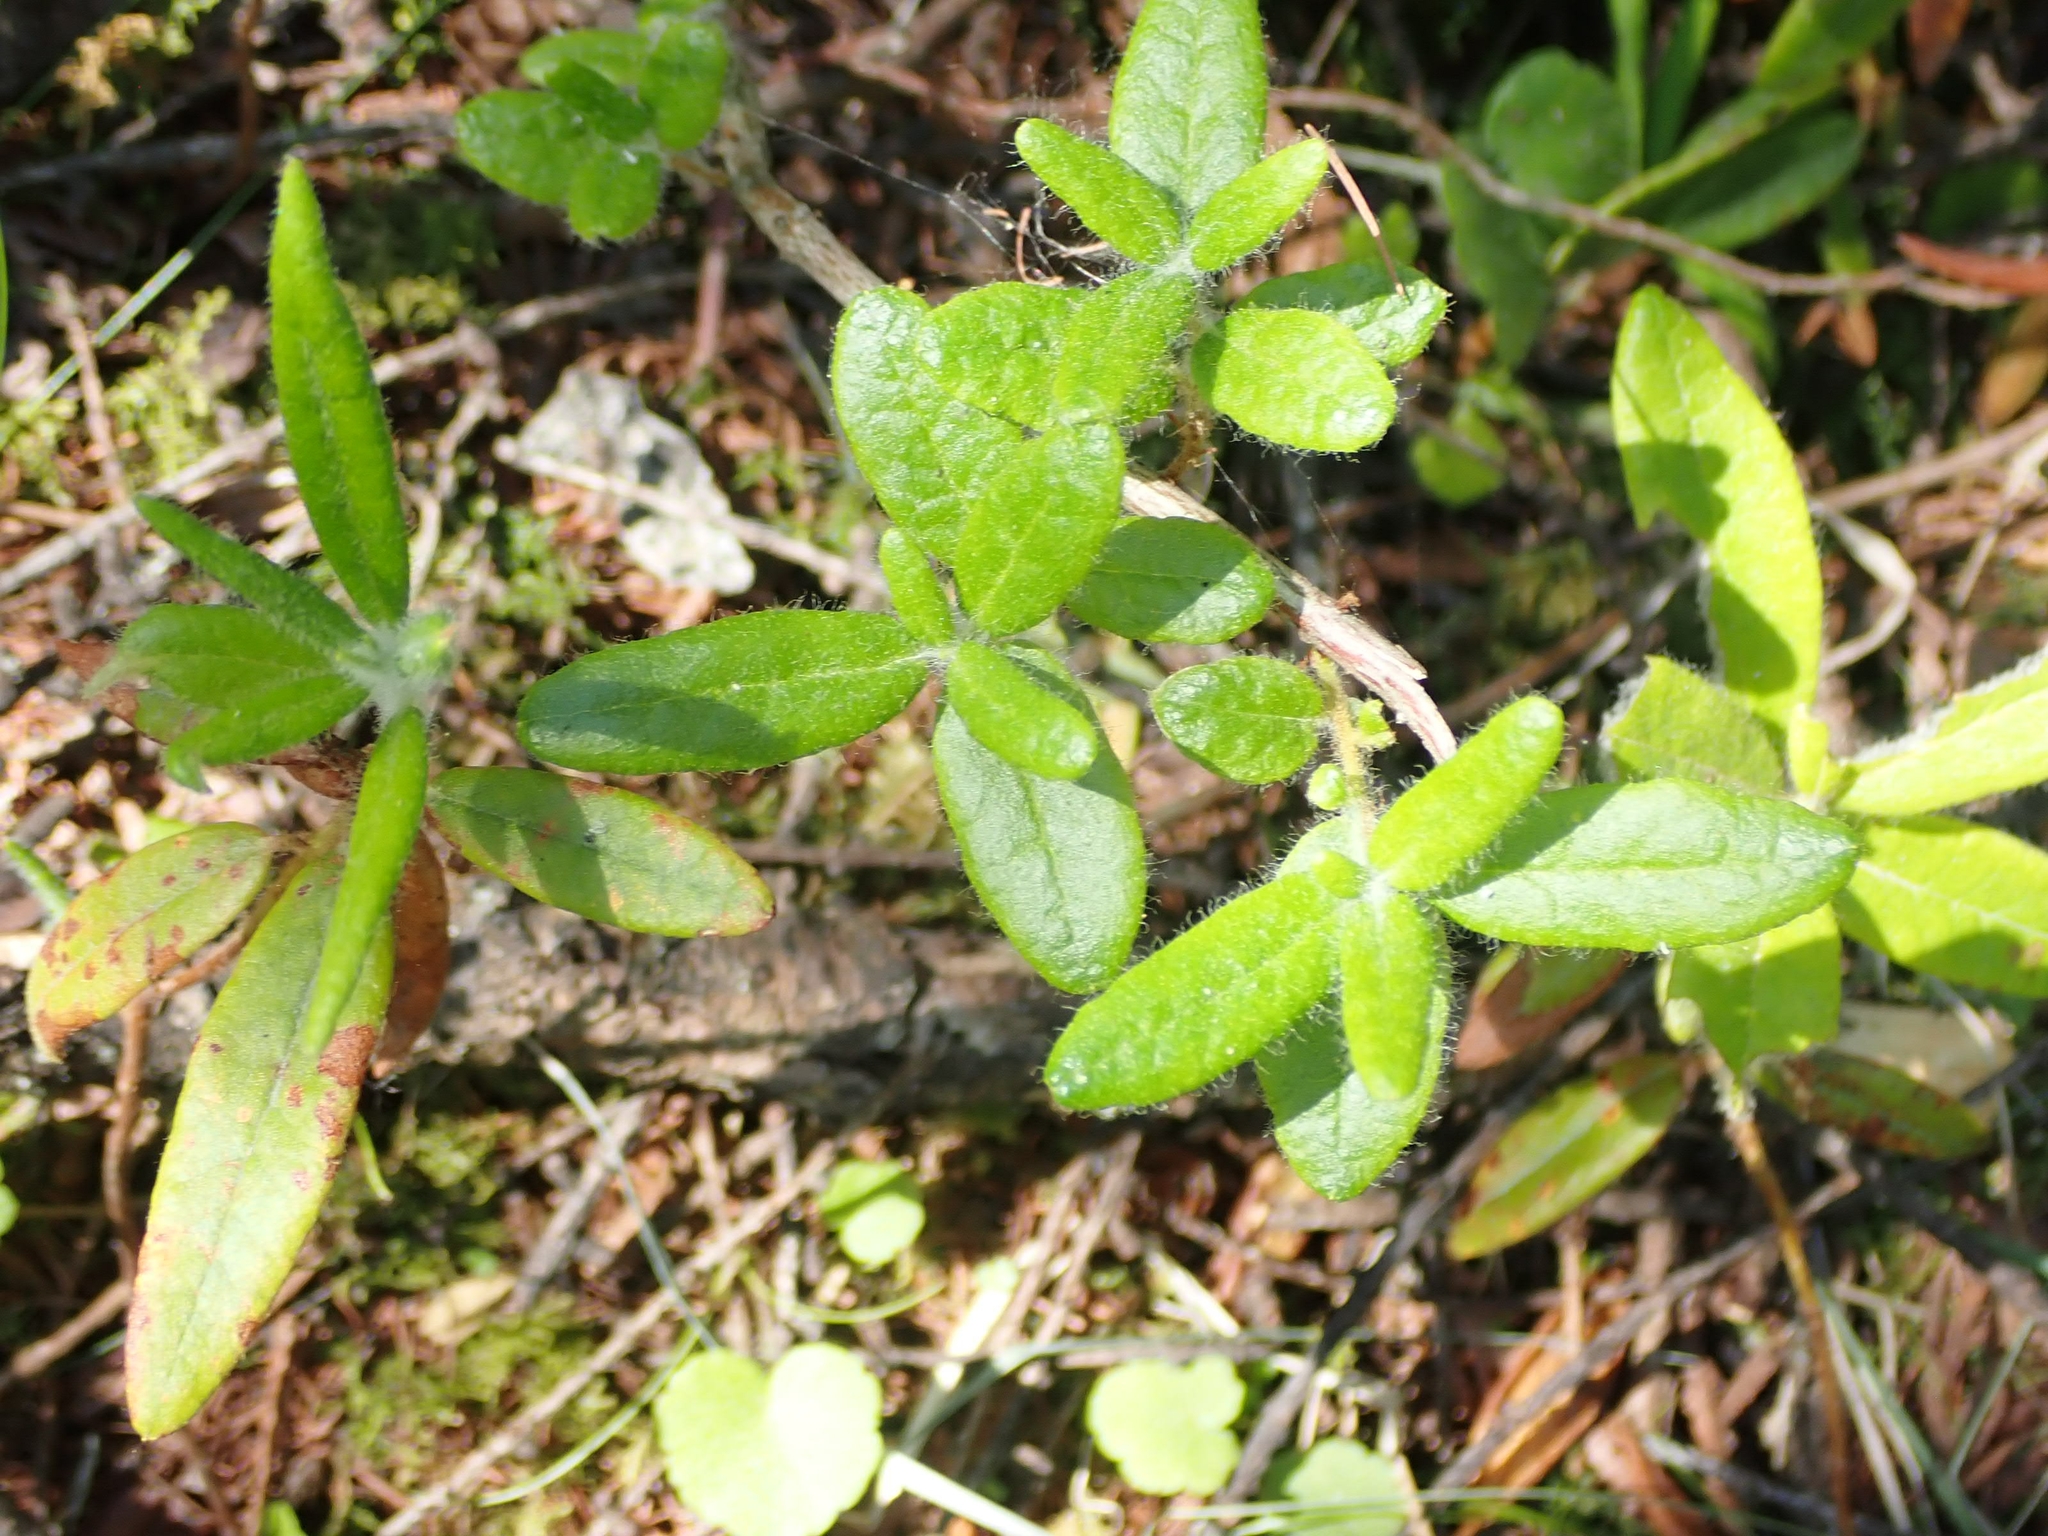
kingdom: Plantae
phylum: Tracheophyta
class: Magnoliopsida
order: Ericales
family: Ericaceae
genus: Rhododendron
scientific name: Rhododendron groenlandicum
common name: Bog labrador tea
